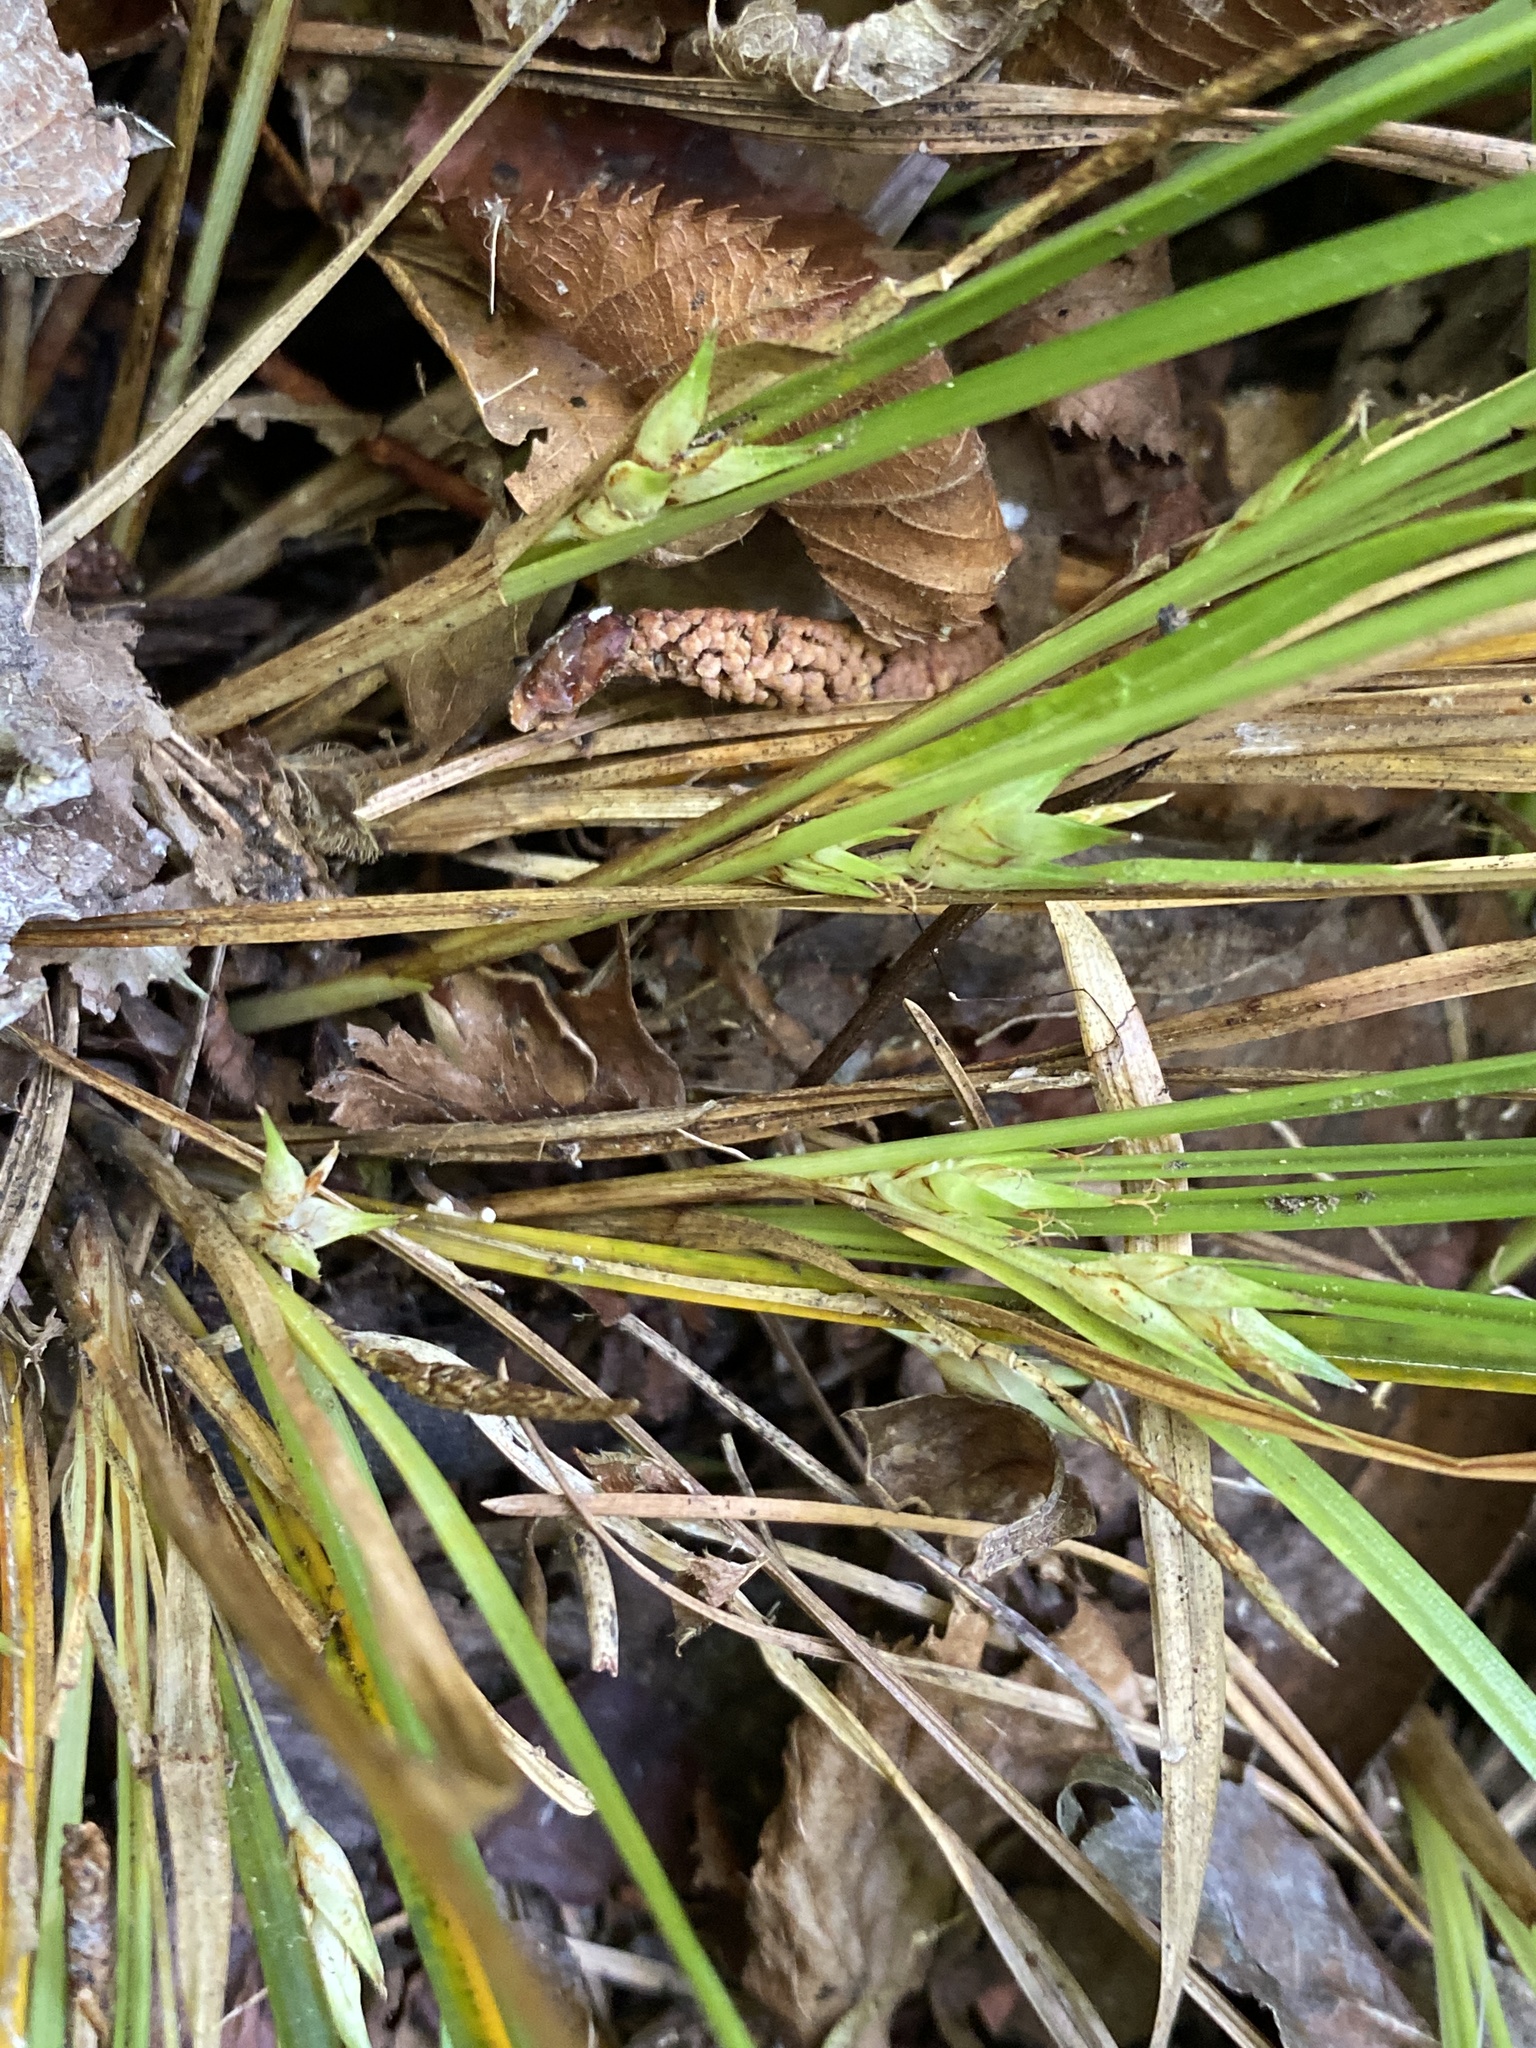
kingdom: Plantae
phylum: Tracheophyta
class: Liliopsida
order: Poales
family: Cyperaceae
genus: Carex
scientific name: Carex basiantha
